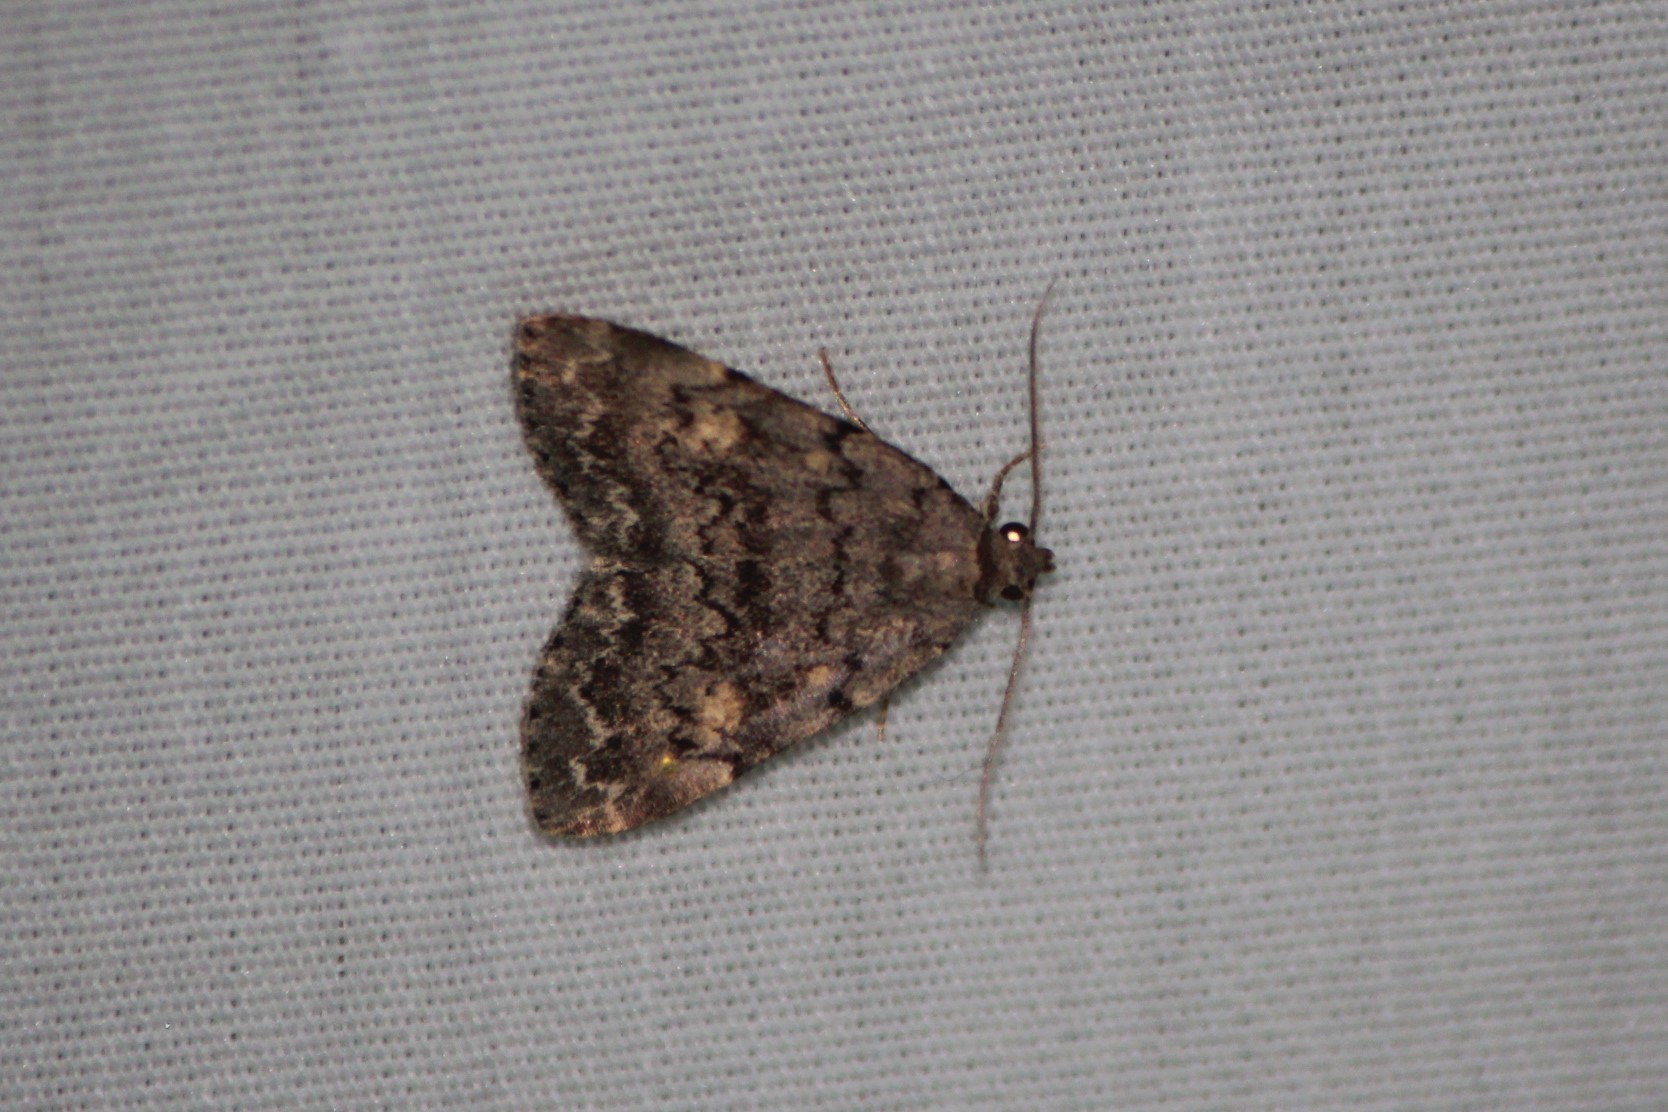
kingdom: Animalia
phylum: Arthropoda
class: Insecta
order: Lepidoptera
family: Erebidae
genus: Idia
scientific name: Idia aemula
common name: Common idia moth
